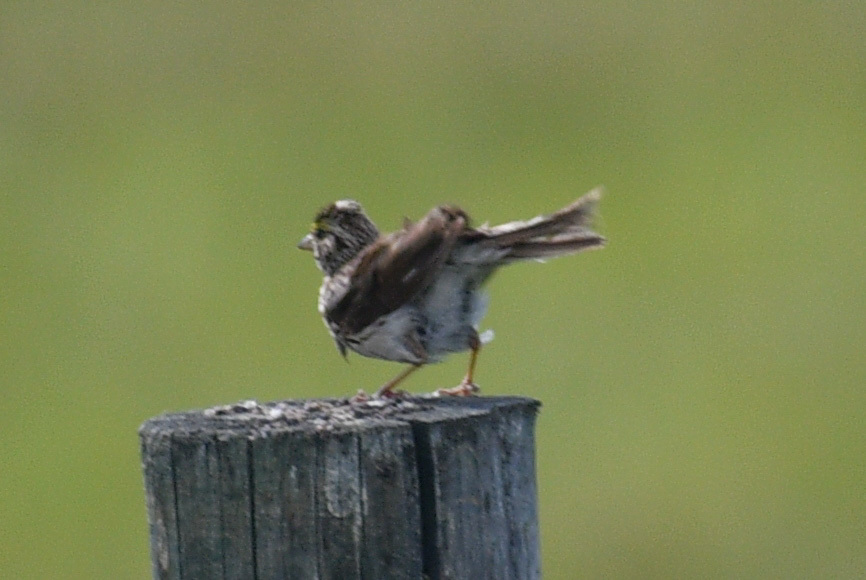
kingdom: Animalia
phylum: Chordata
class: Aves
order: Passeriformes
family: Passerellidae
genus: Passerculus
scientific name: Passerculus sandwichensis
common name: Savannah sparrow
